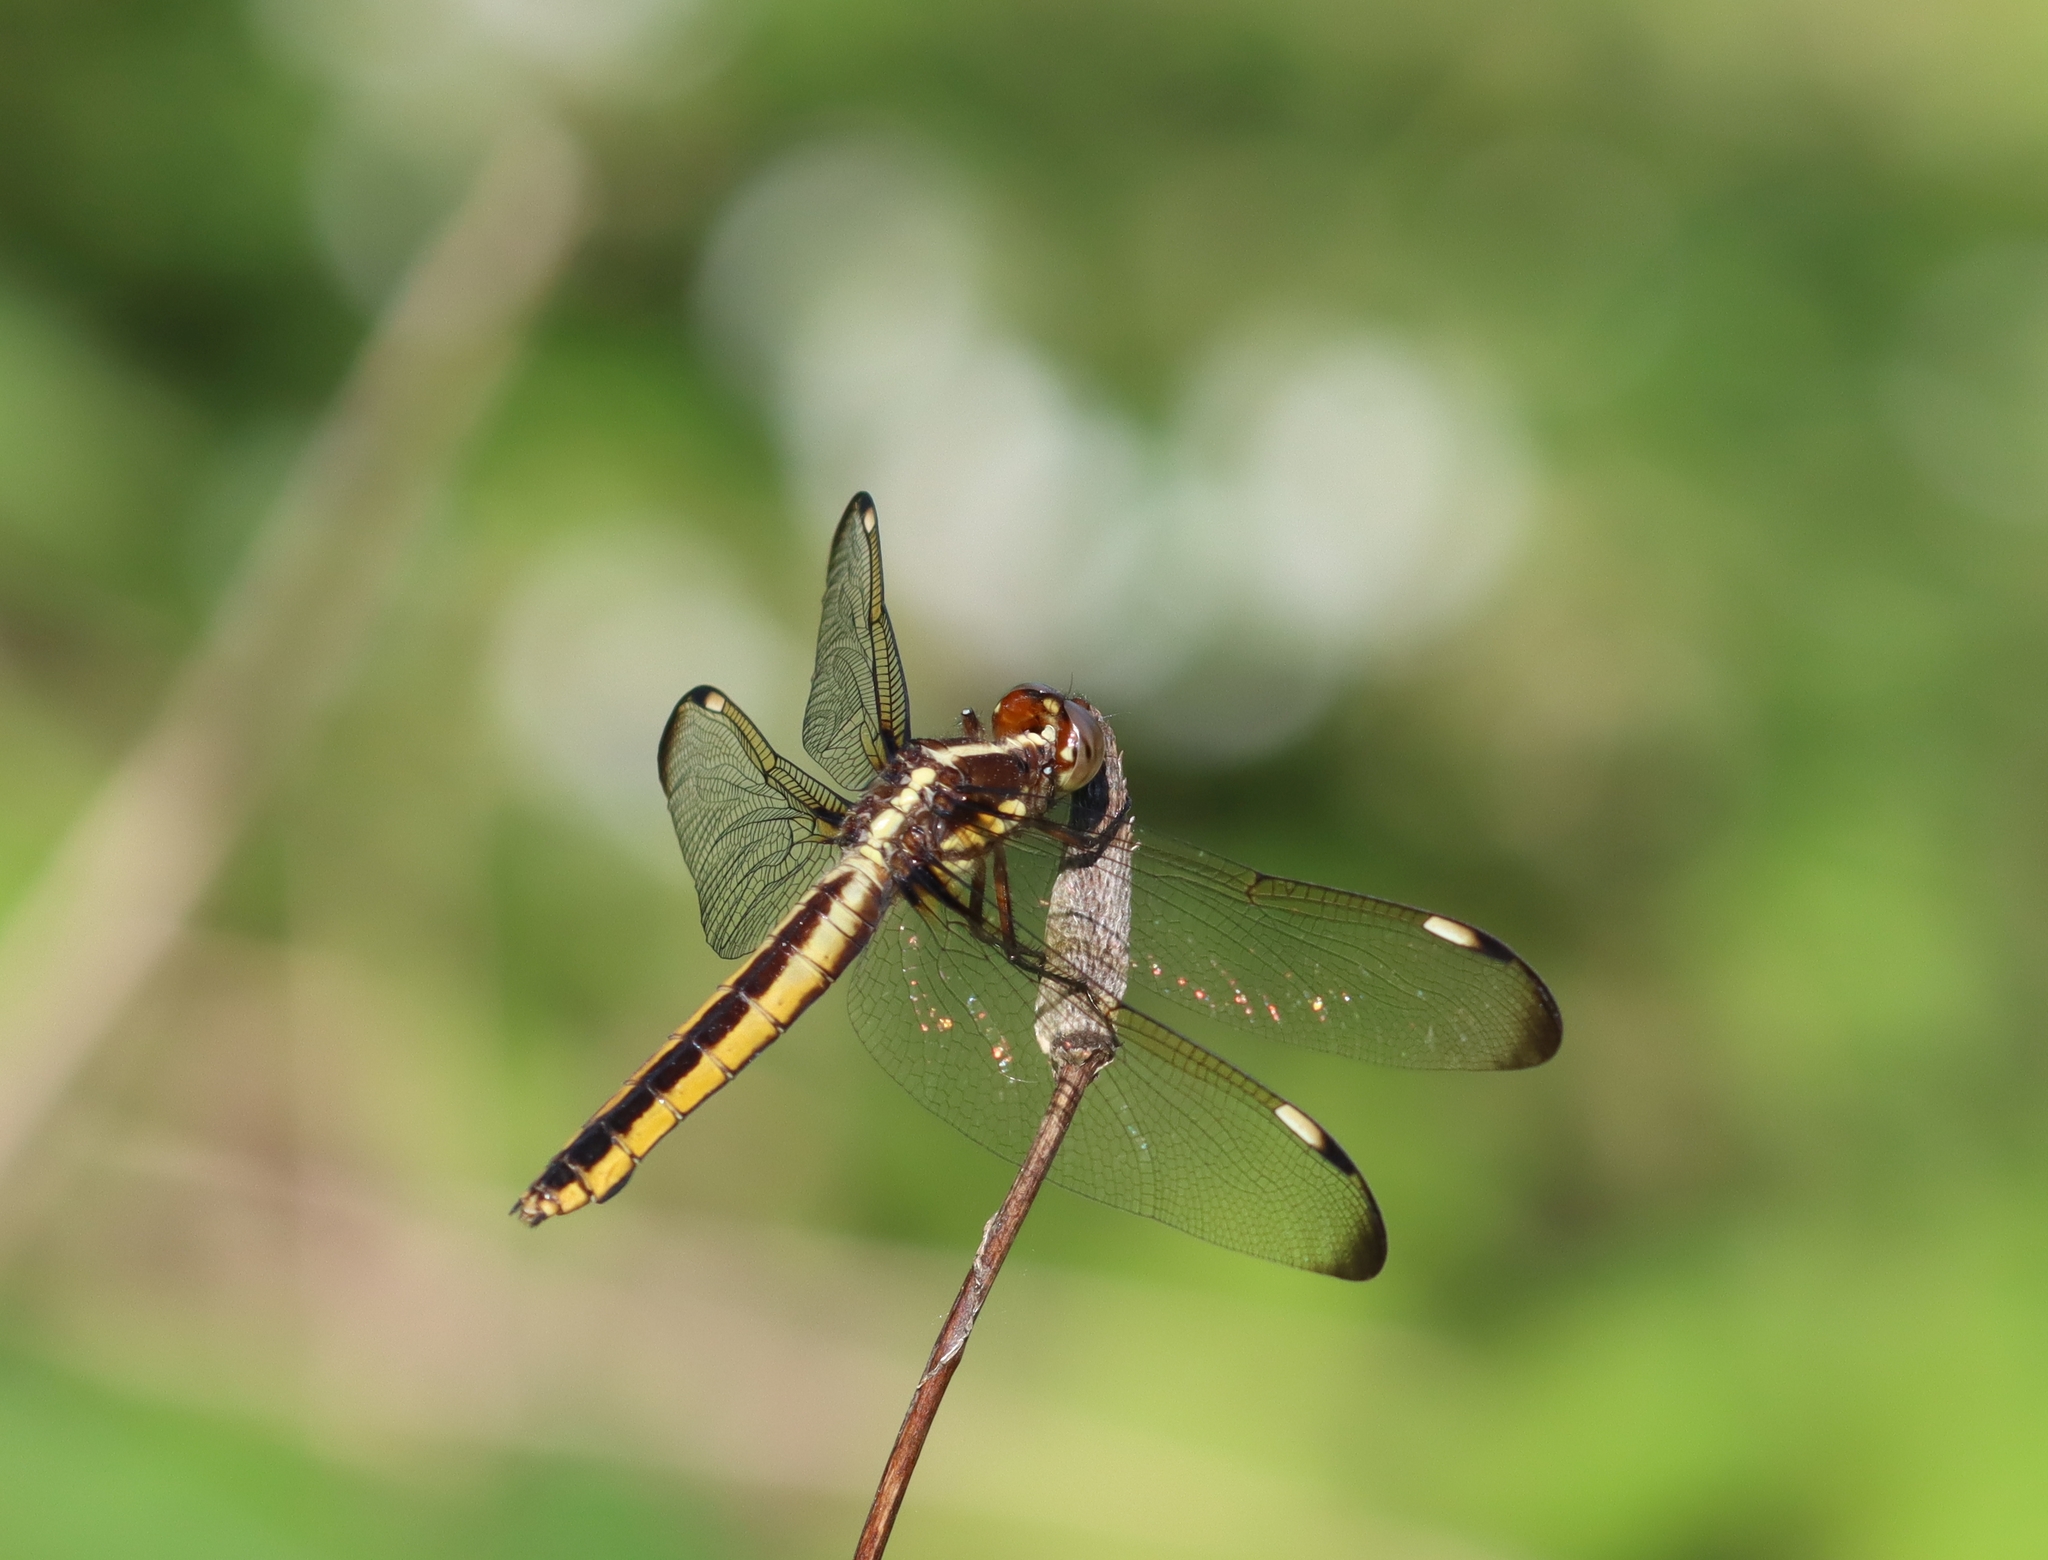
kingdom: Animalia
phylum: Arthropoda
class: Insecta
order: Odonata
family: Libellulidae
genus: Libellula
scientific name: Libellula cyanea
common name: Spangled skimmer
